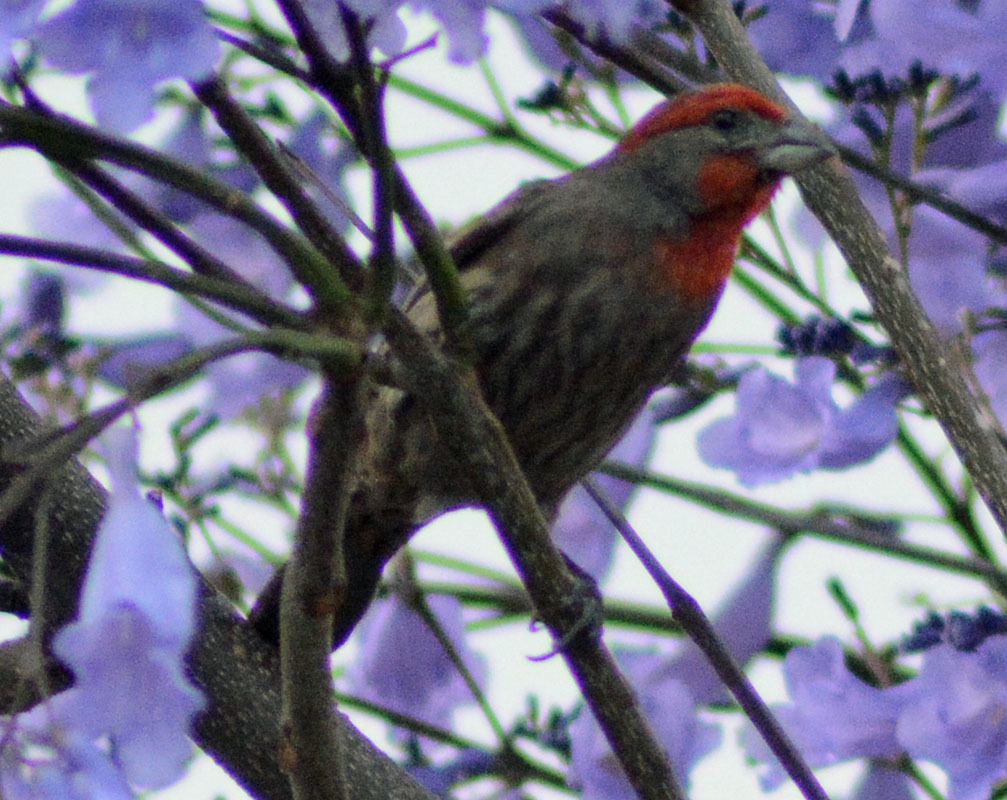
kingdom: Animalia
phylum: Chordata
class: Aves
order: Passeriformes
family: Fringillidae
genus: Haemorhous
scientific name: Haemorhous mexicanus
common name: House finch
